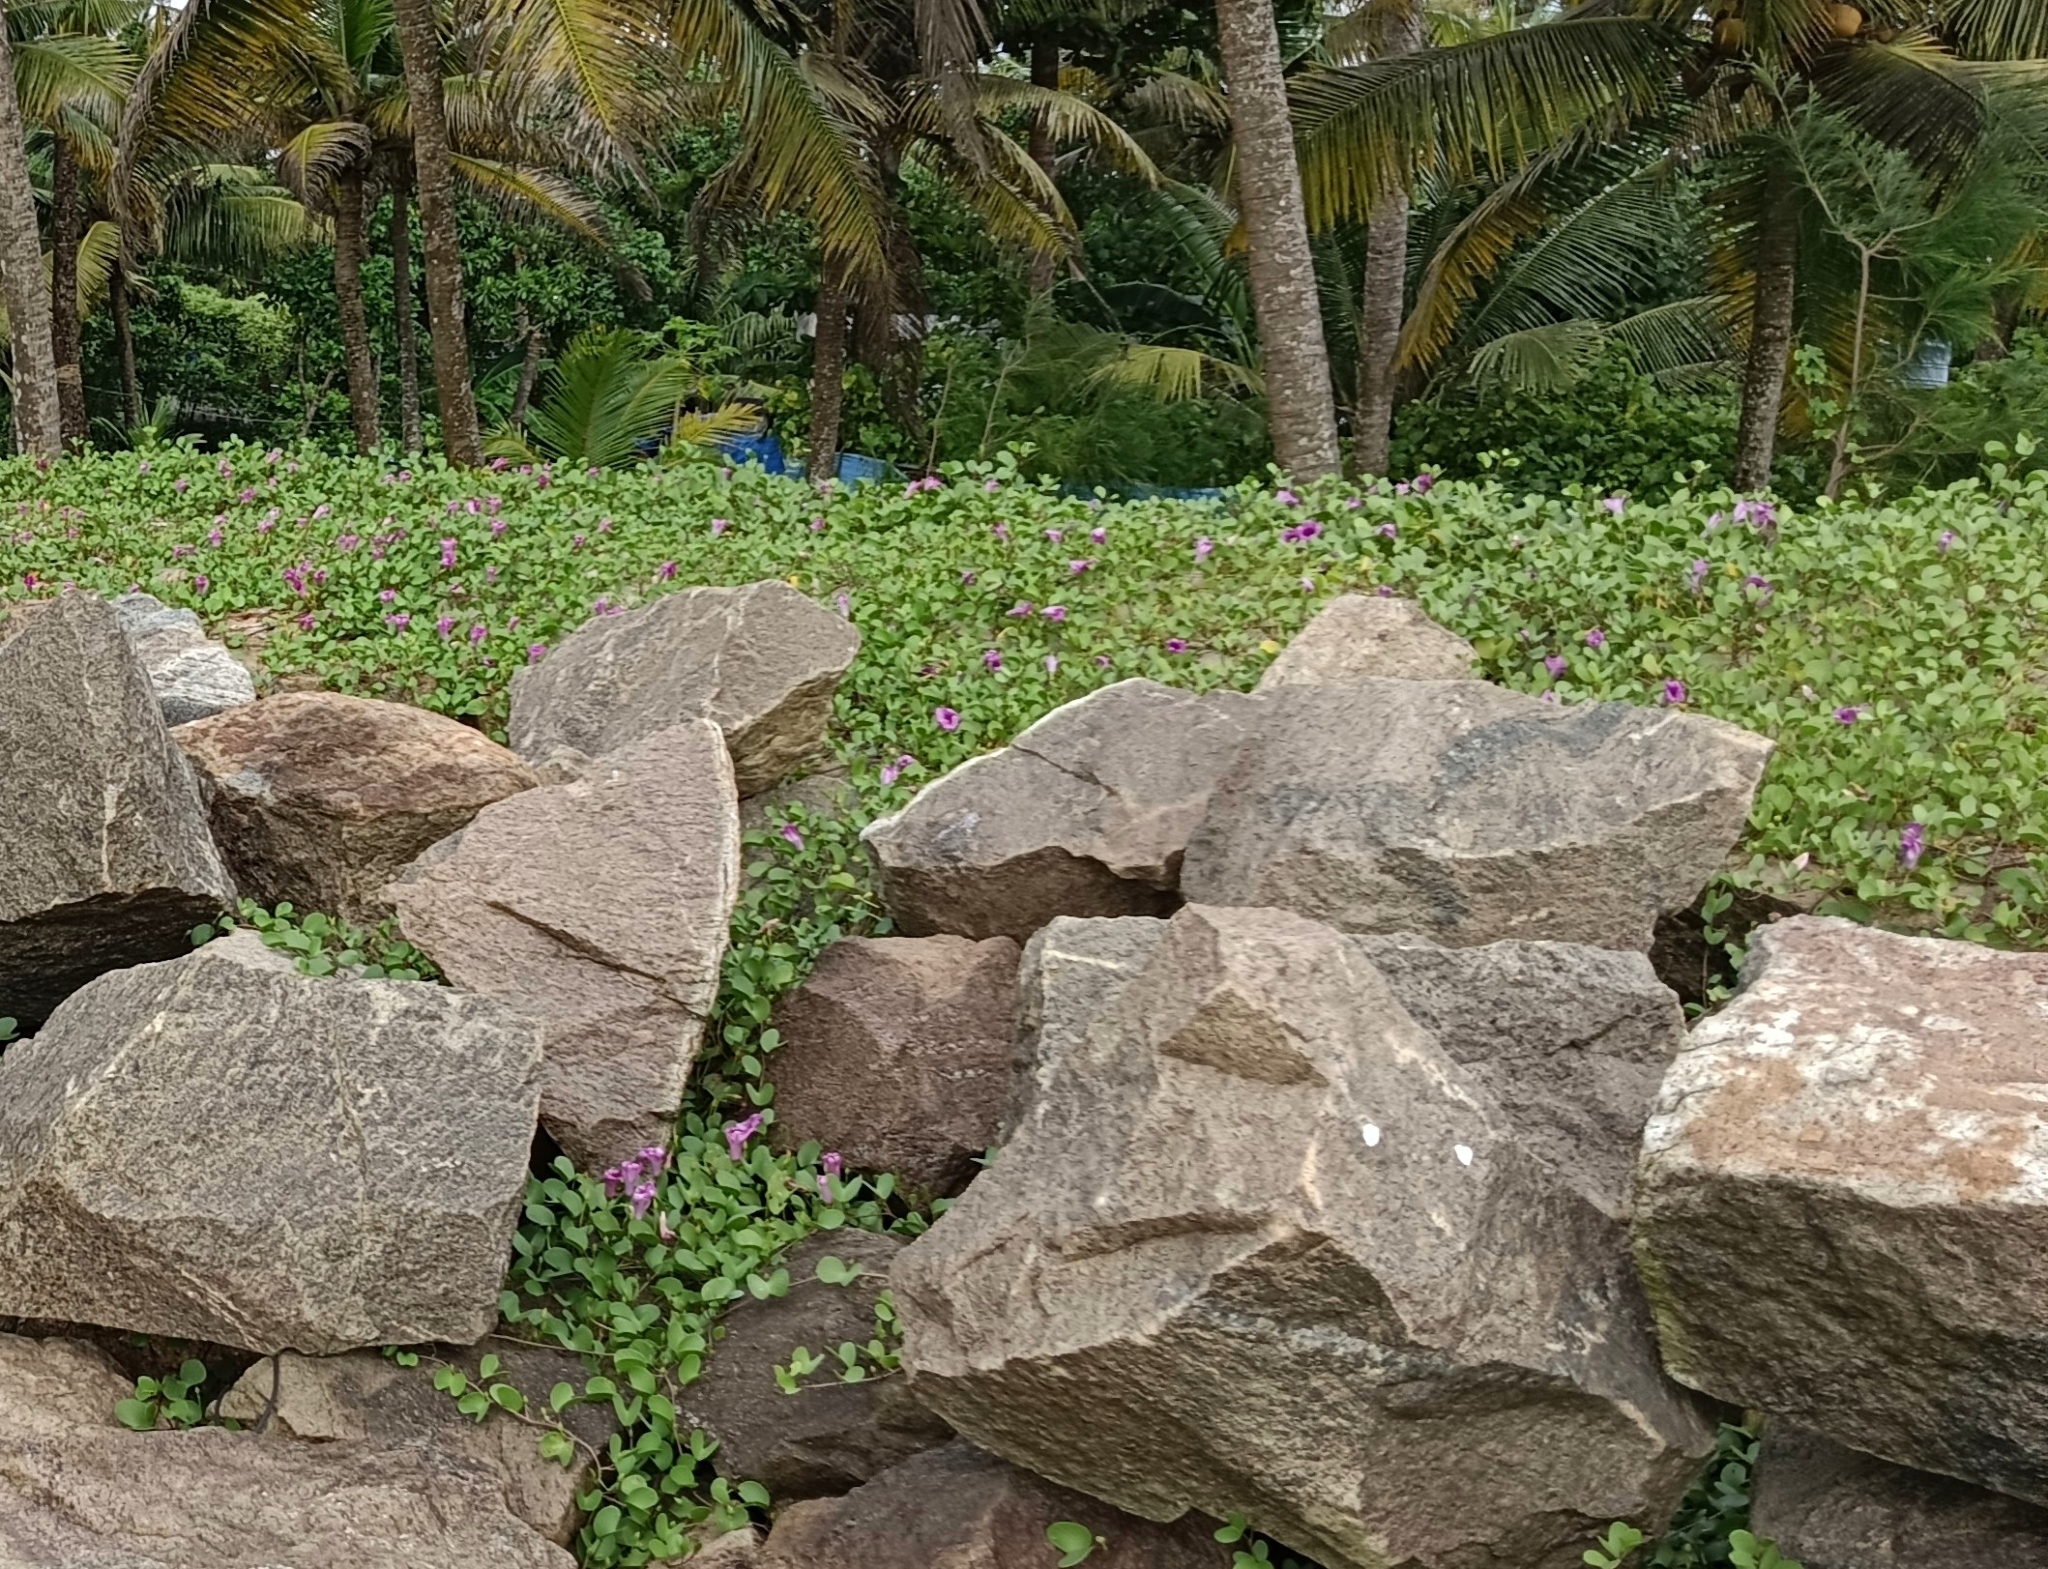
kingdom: Plantae
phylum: Tracheophyta
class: Magnoliopsida
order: Solanales
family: Convolvulaceae
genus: Ipomoea
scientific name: Ipomoea pes-caprae
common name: Beach morning glory
